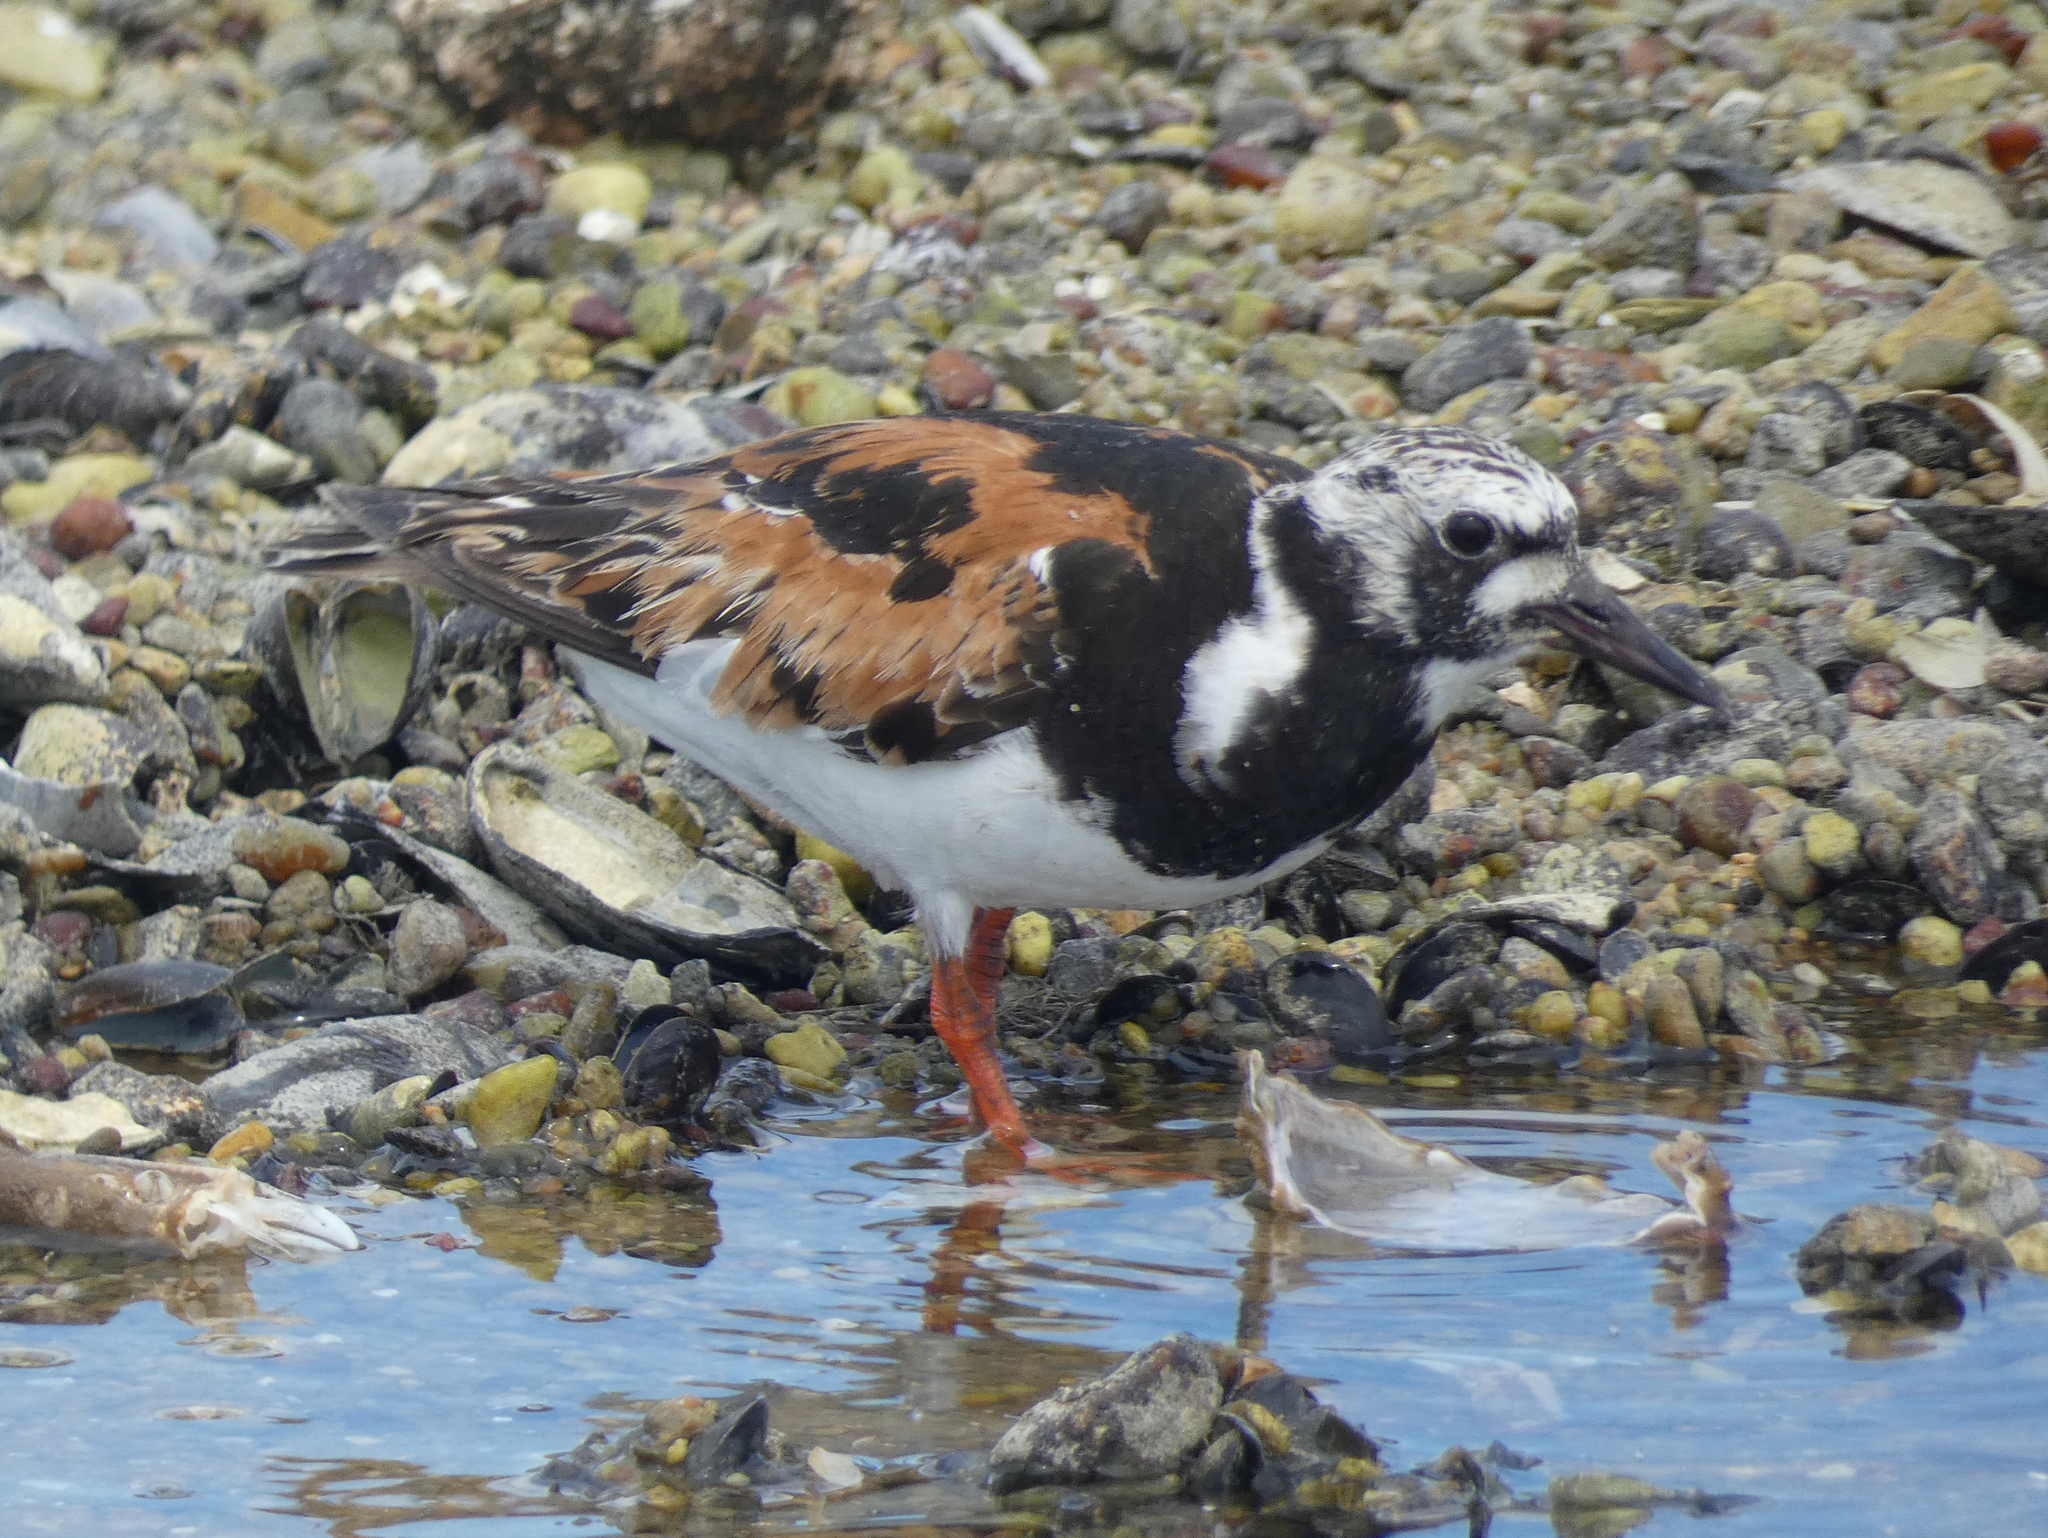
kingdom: Animalia
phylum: Chordata
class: Aves
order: Charadriiformes
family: Scolopacidae
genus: Arenaria
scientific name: Arenaria interpres
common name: Ruddy turnstone
